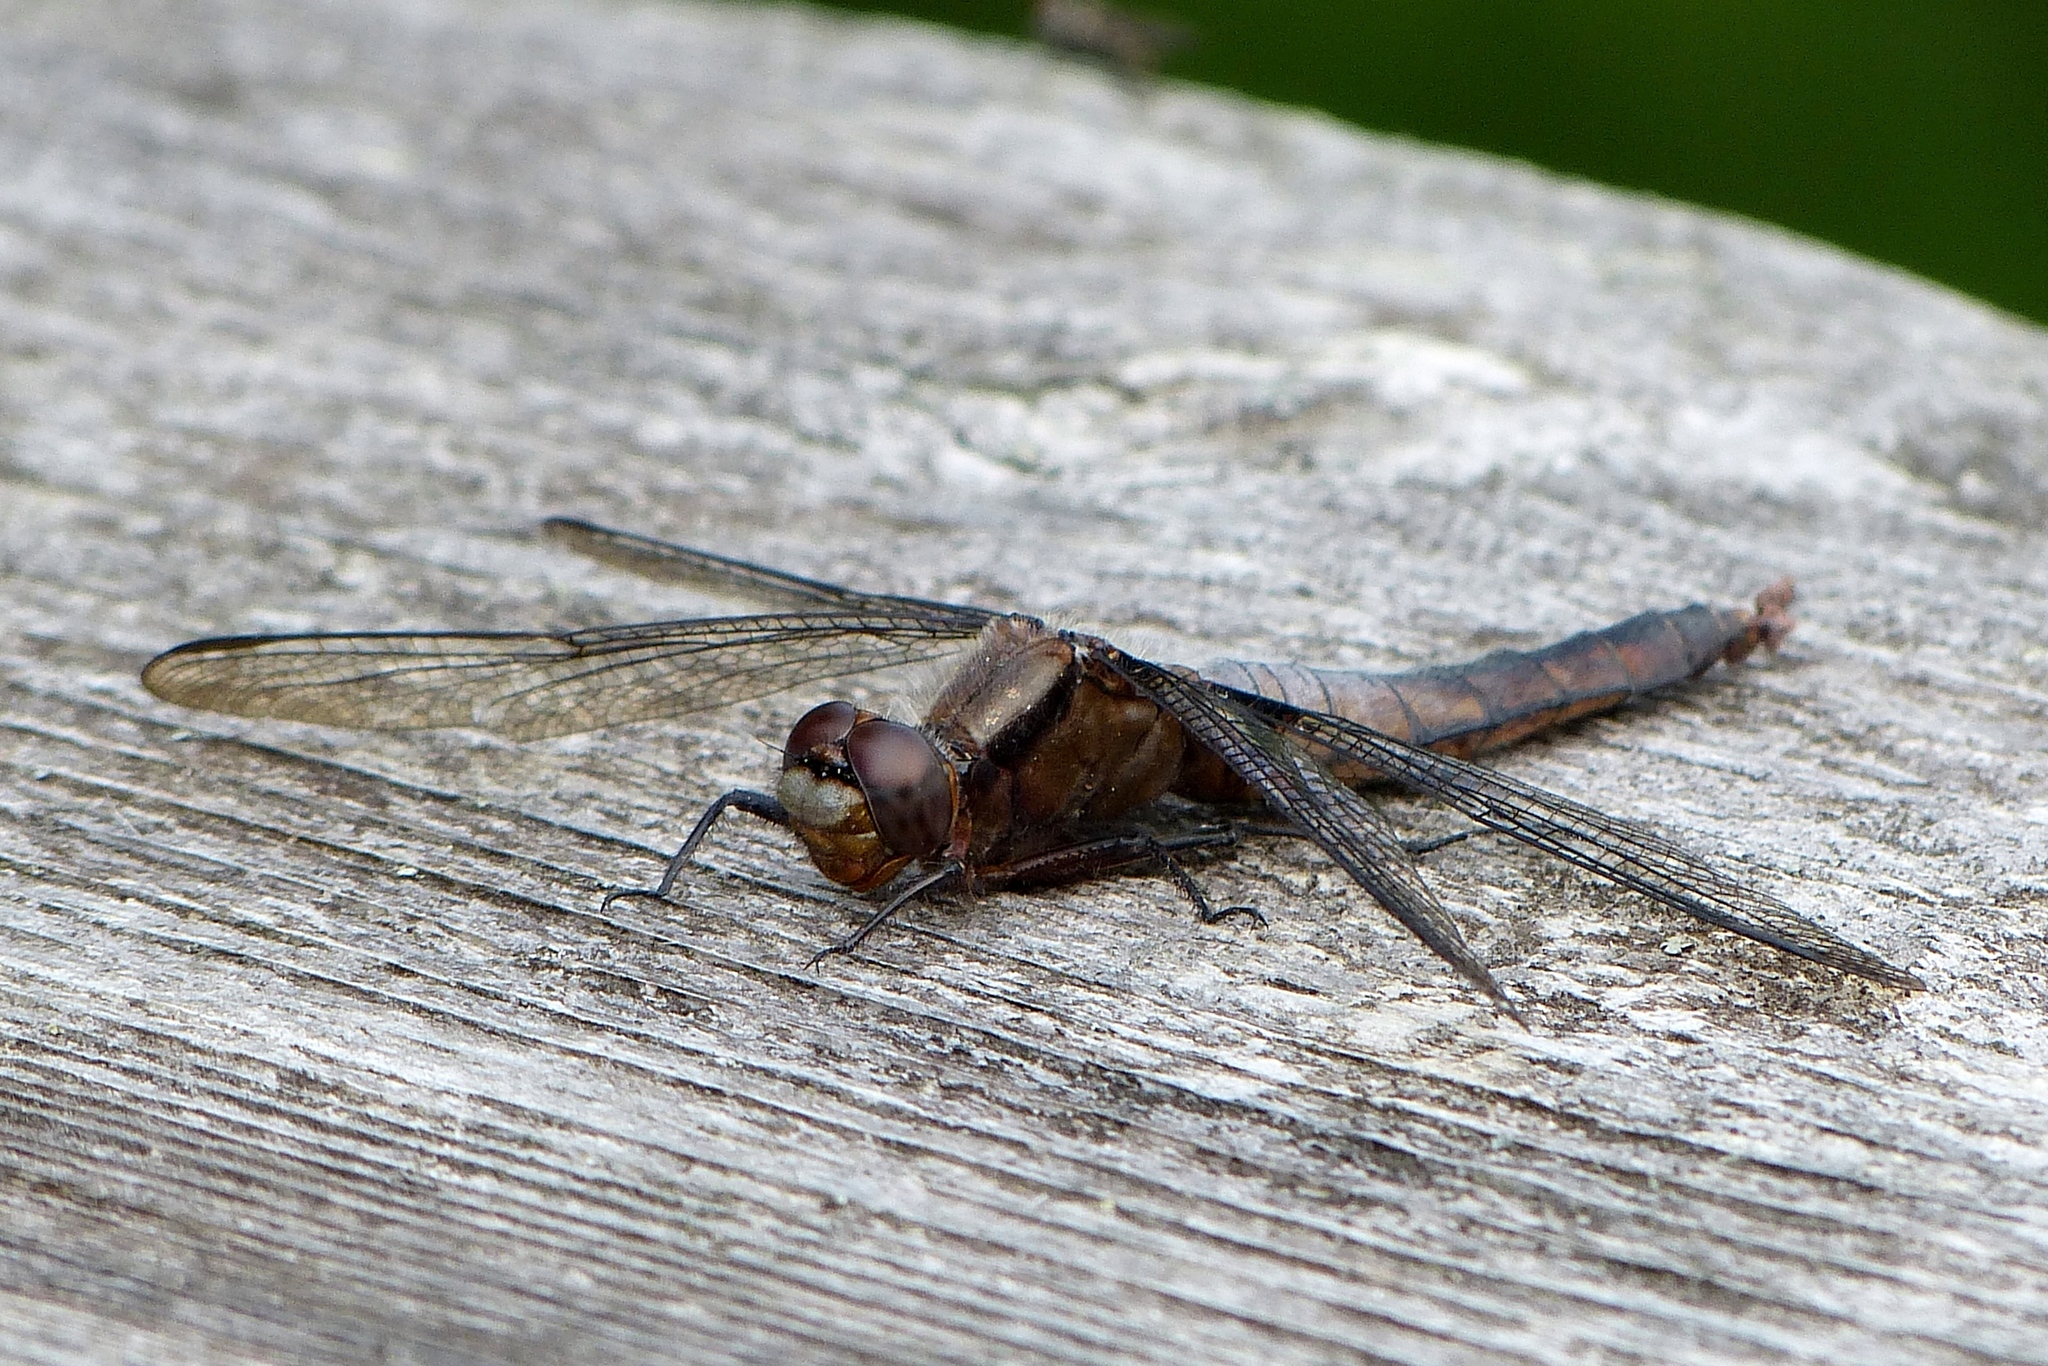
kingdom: Animalia
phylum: Arthropoda
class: Insecta
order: Odonata
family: Libellulidae
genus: Ladona
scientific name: Ladona julia
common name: Chalk-fronted corporal
